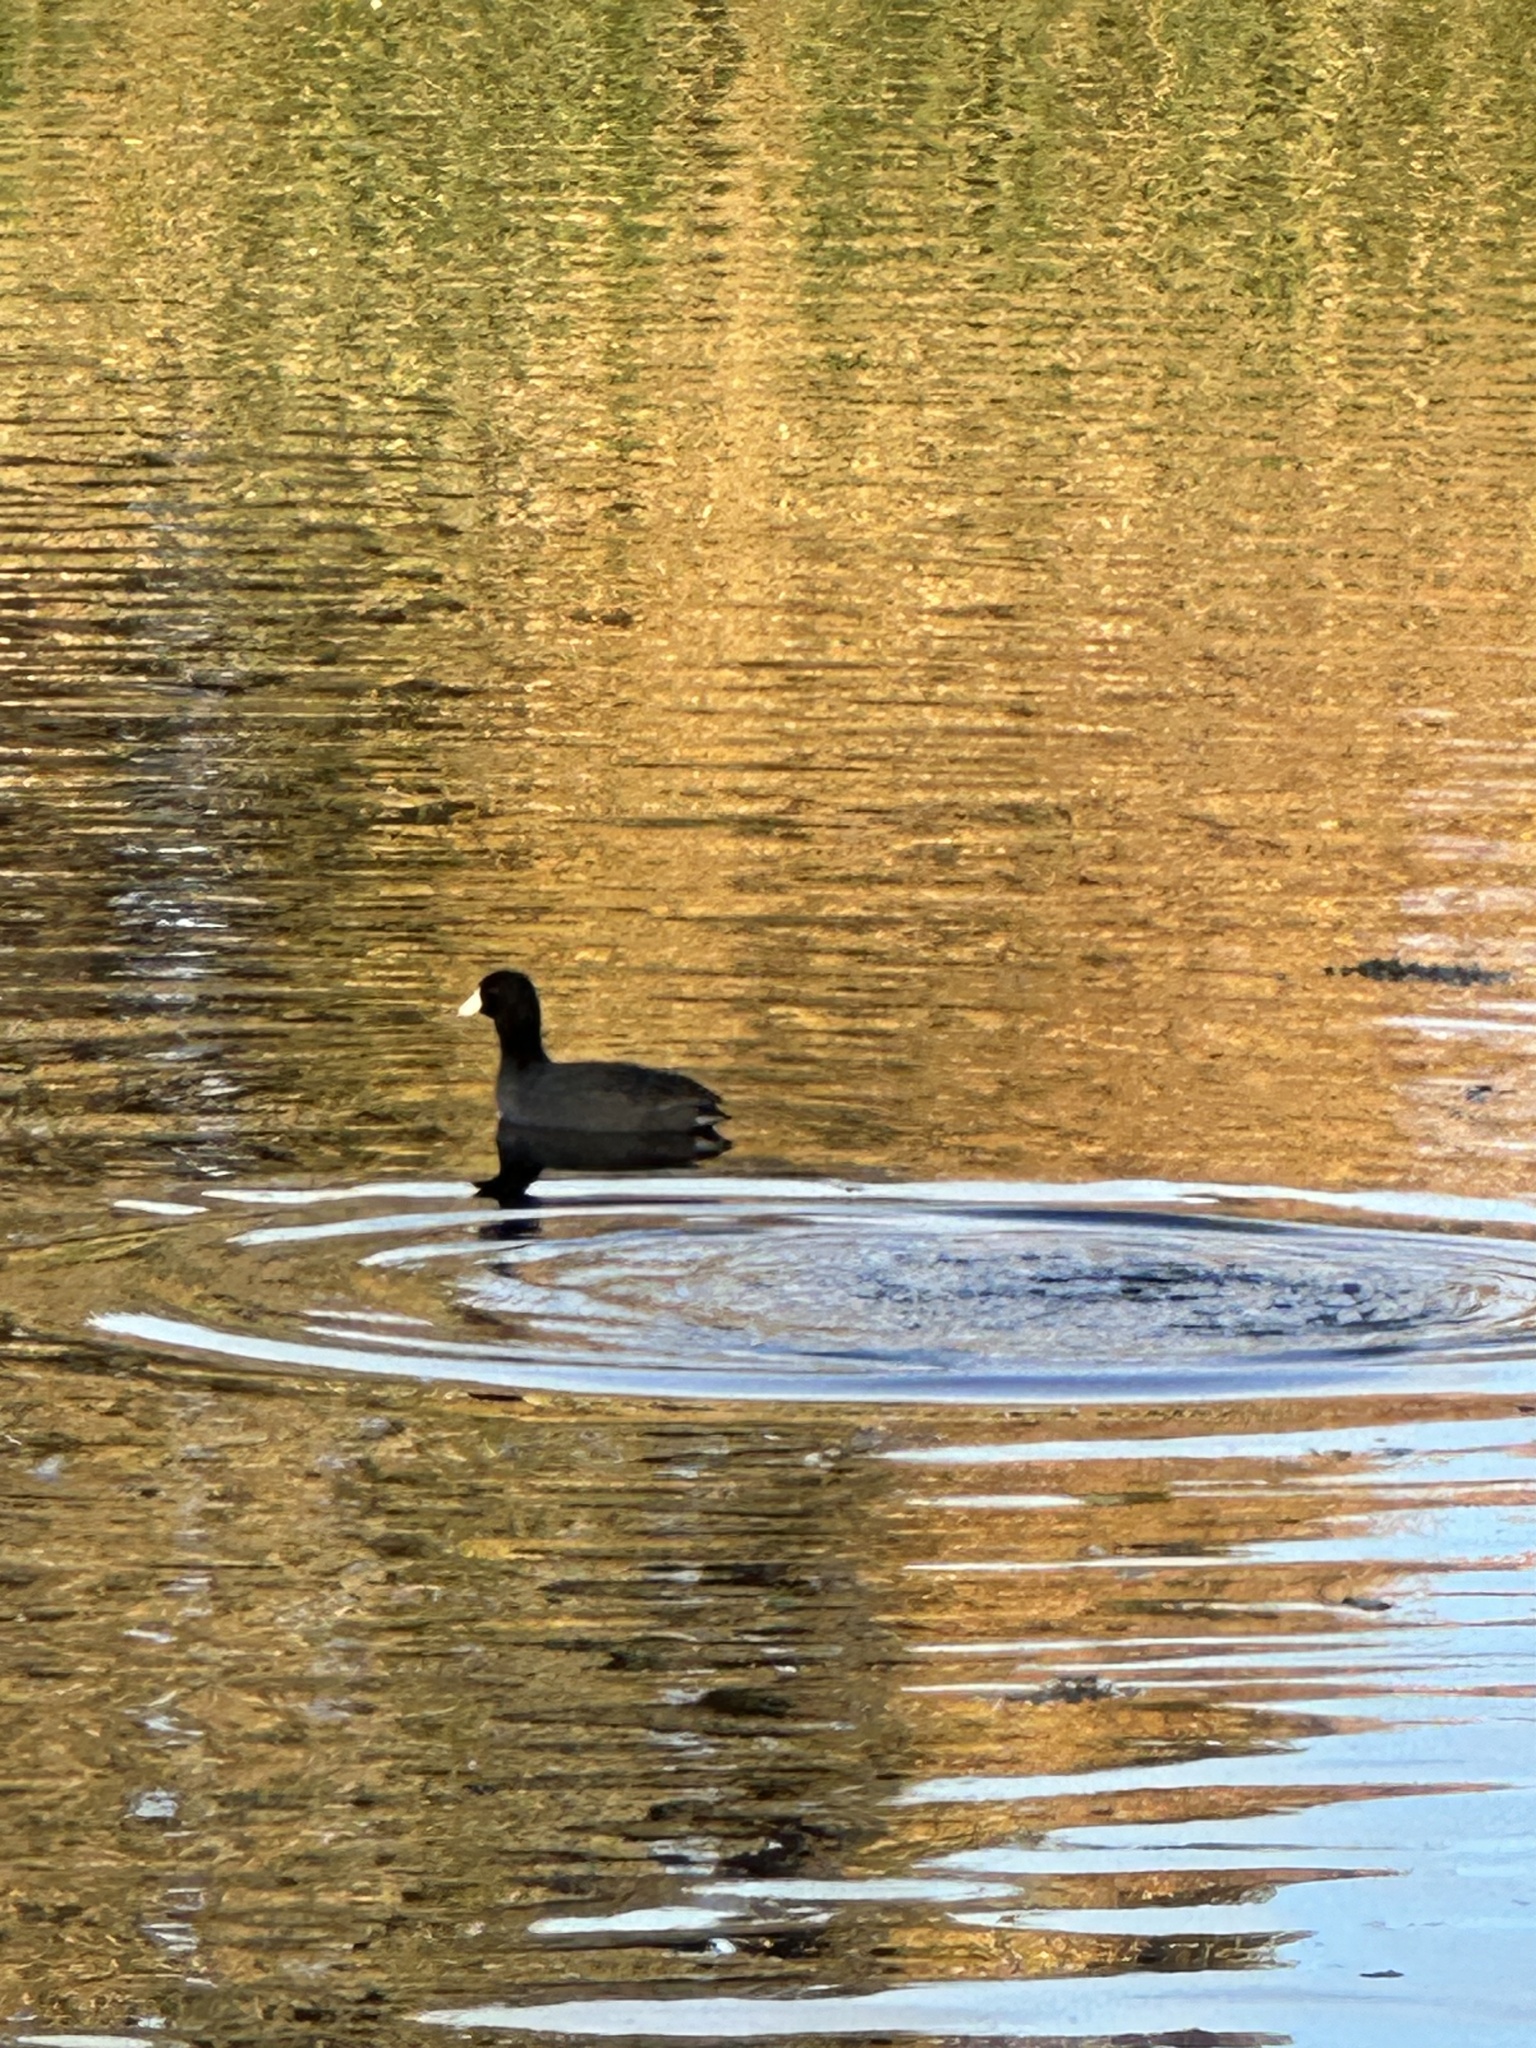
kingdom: Animalia
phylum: Chordata
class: Aves
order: Gruiformes
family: Rallidae
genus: Fulica
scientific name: Fulica americana
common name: American coot
